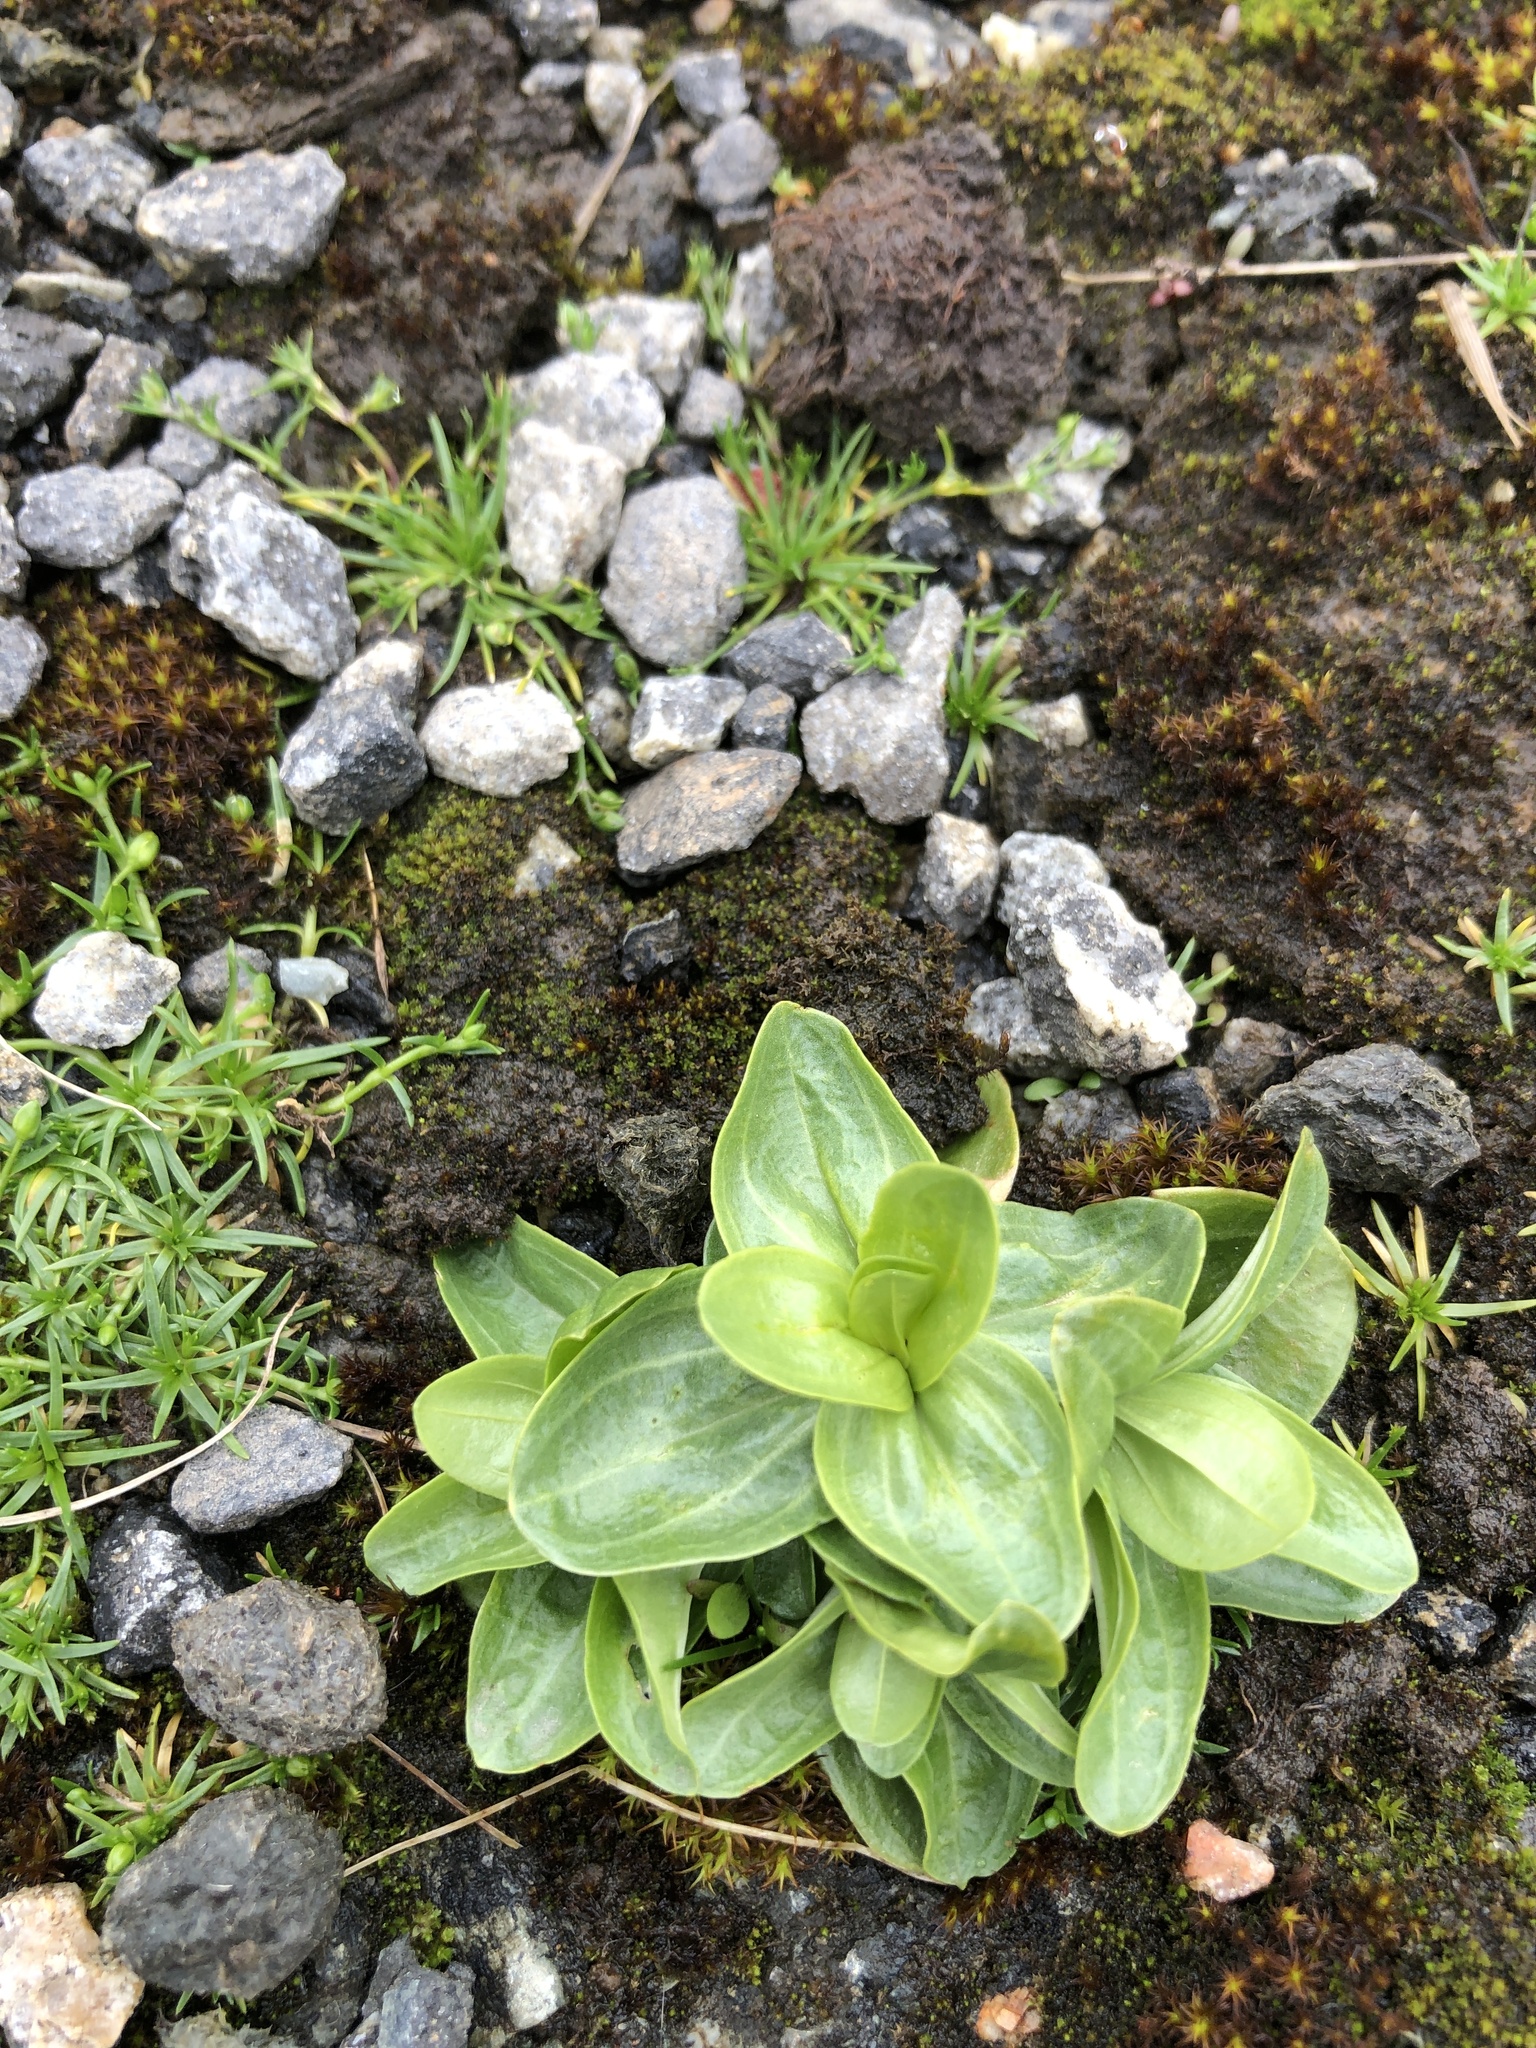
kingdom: Plantae
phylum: Tracheophyta
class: Magnoliopsida
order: Gentianales
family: Gentianaceae
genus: Centaurium
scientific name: Centaurium erythraea
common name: Common centaury
